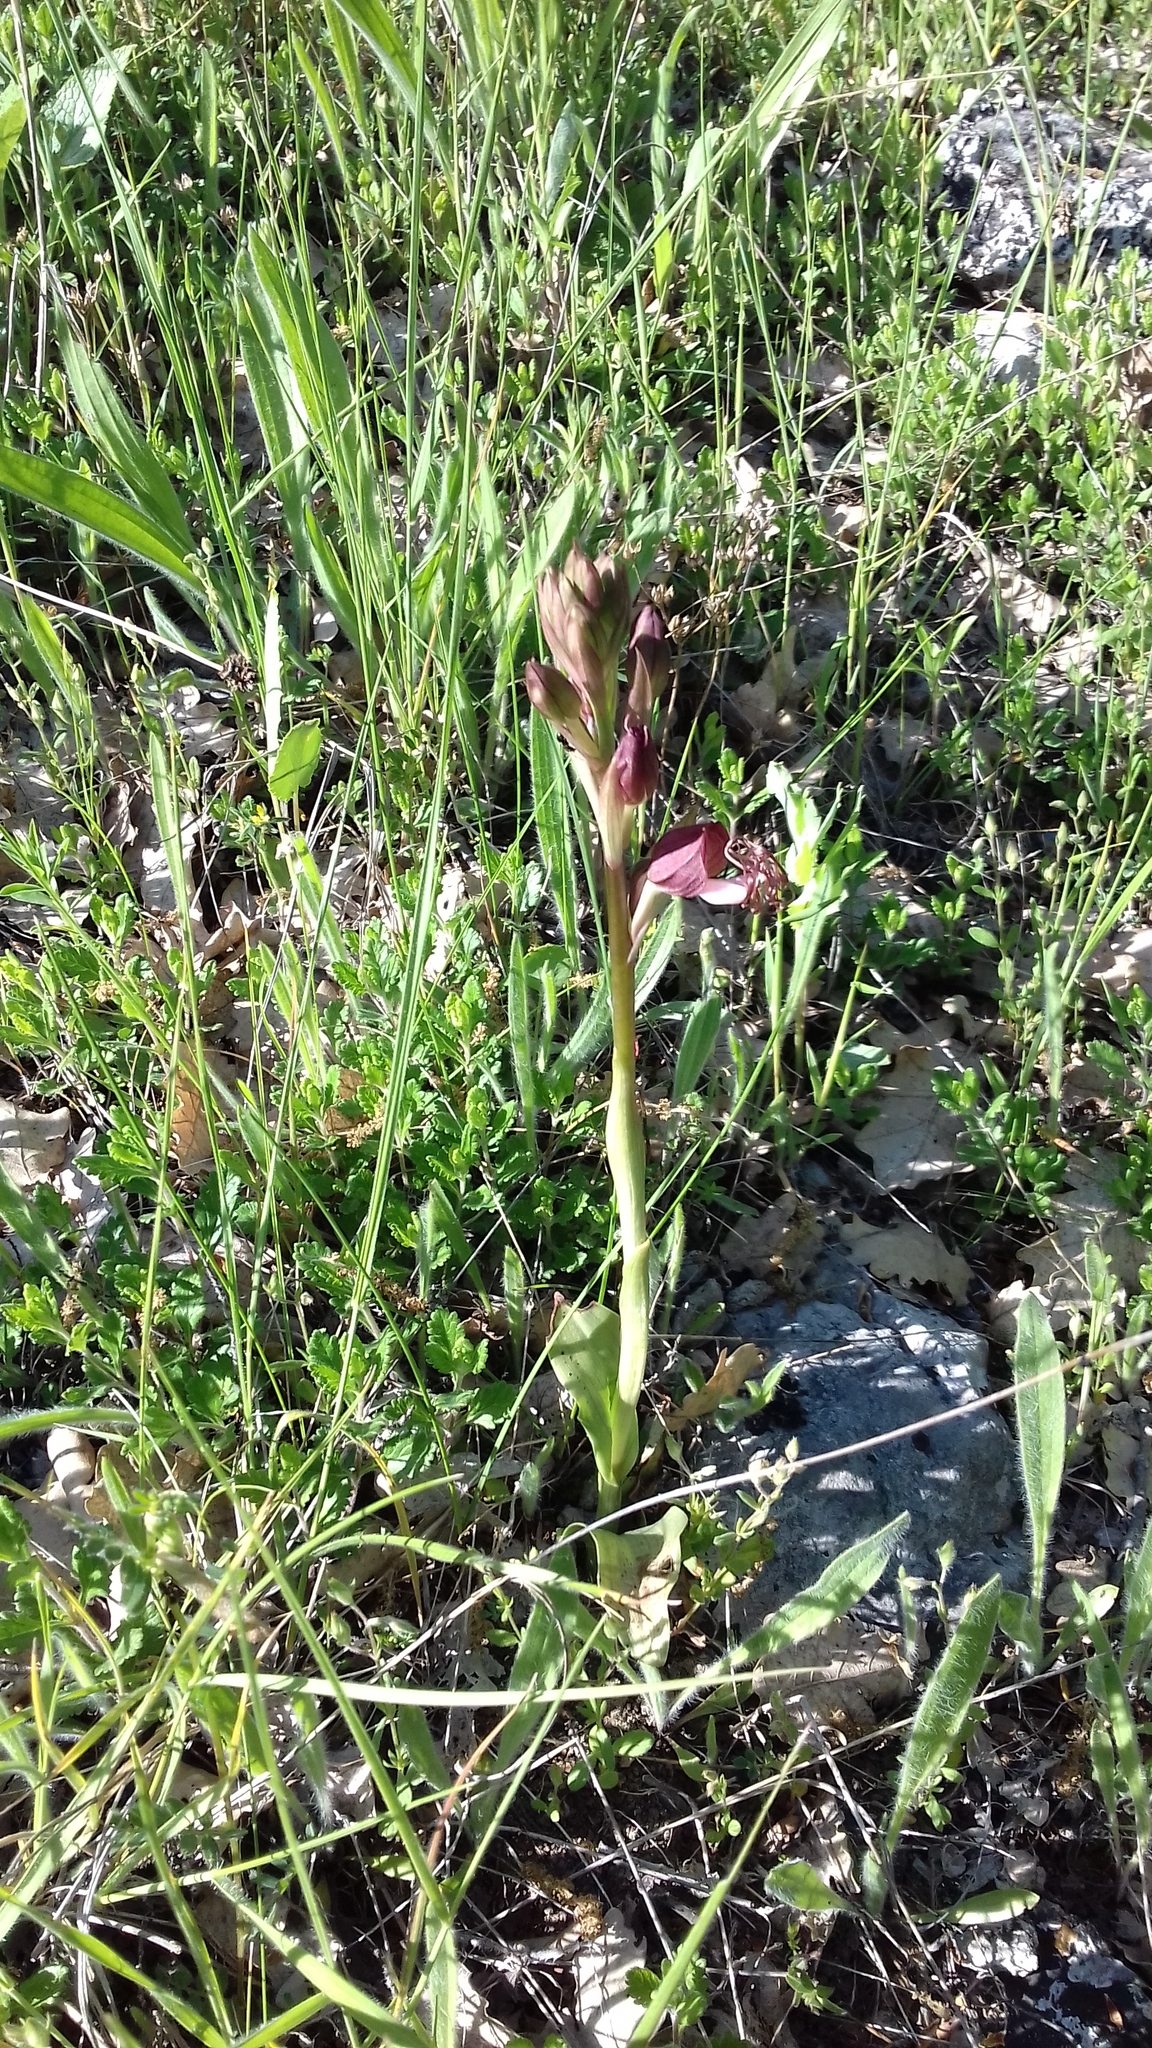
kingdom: Plantae
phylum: Tracheophyta
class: Liliopsida
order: Asparagales
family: Orchidaceae
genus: Himantoglossum
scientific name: Himantoglossum comperianum
